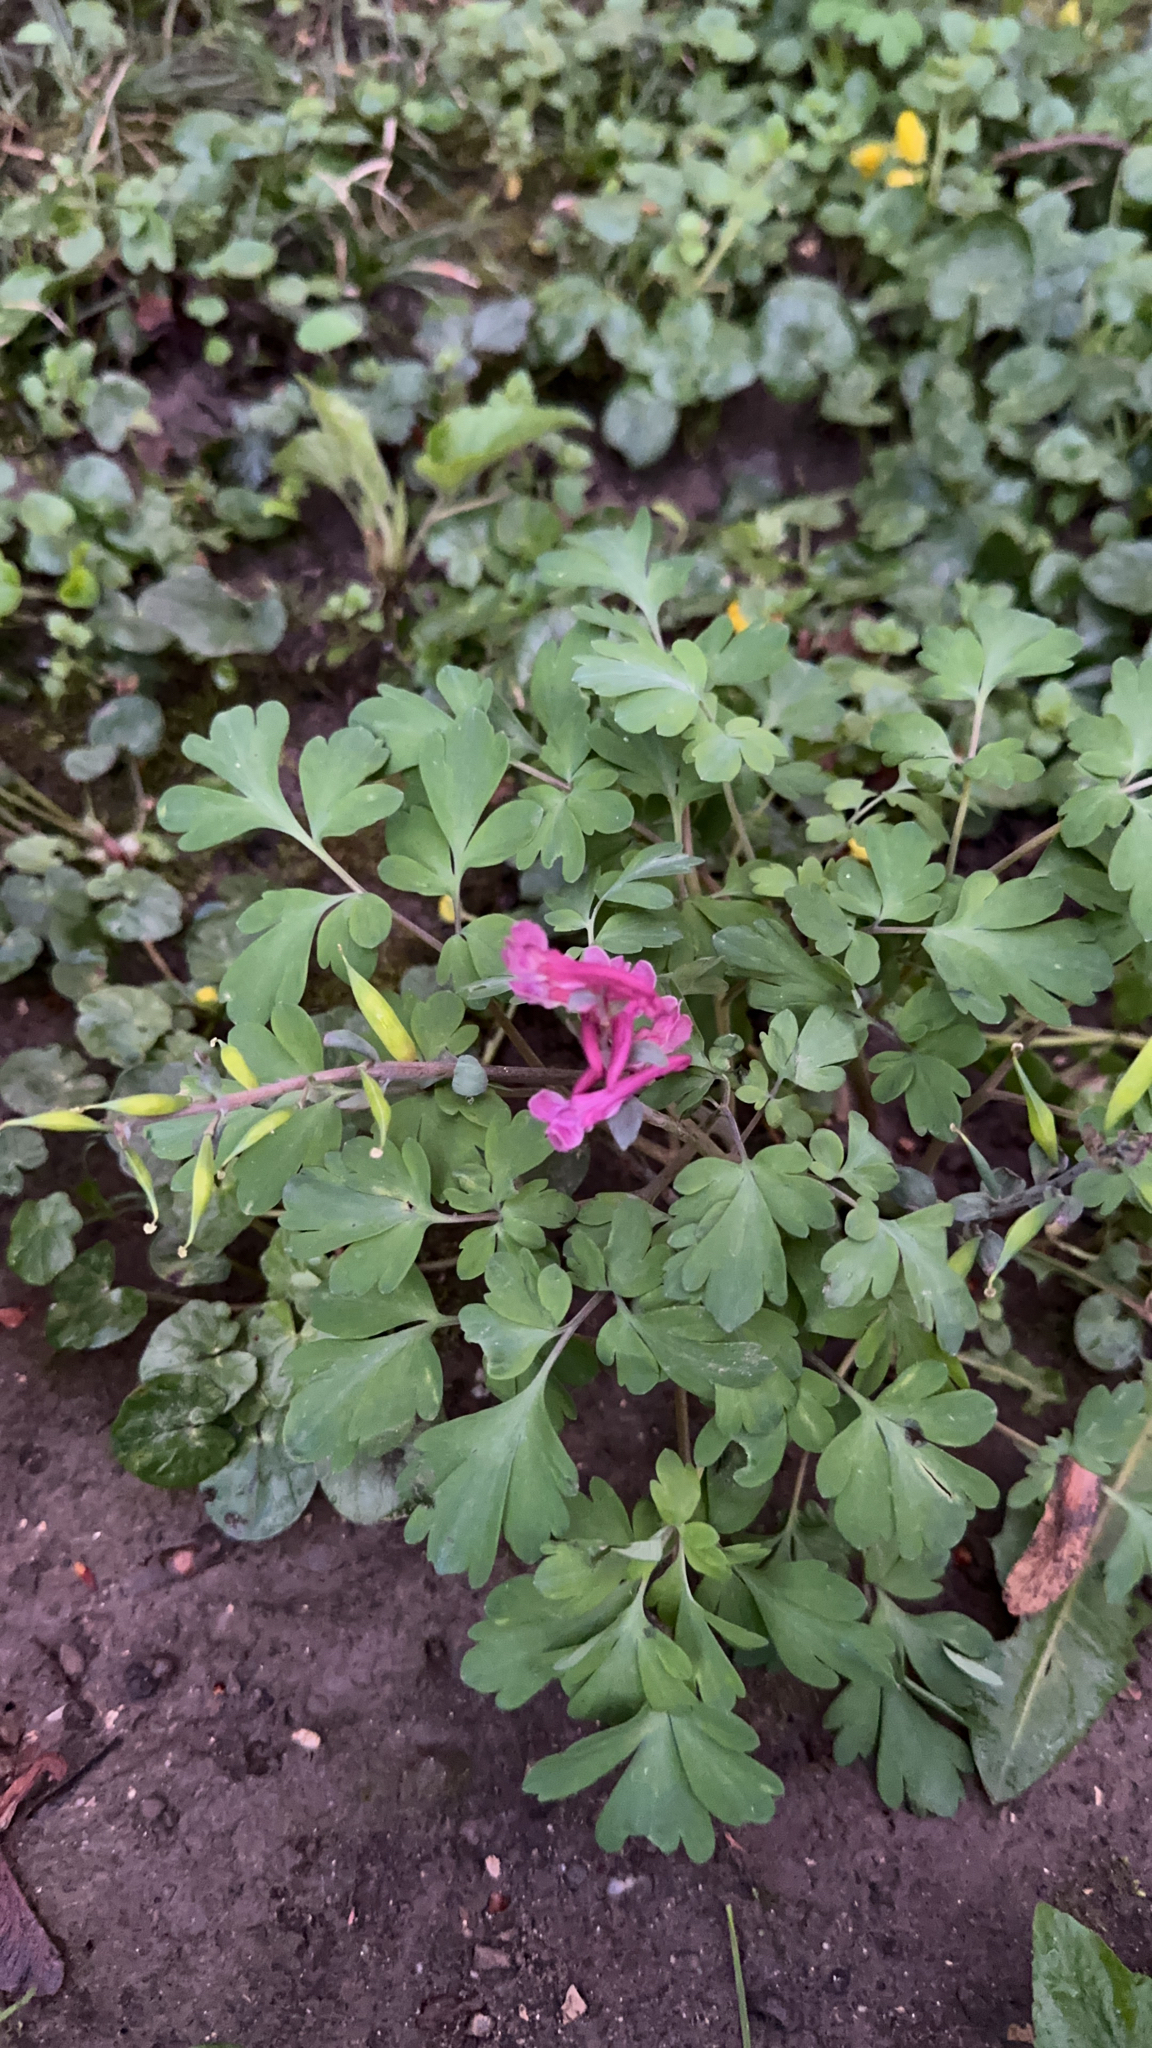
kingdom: Plantae
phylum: Tracheophyta
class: Magnoliopsida
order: Ranunculales
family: Papaveraceae
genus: Corydalis
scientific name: Corydalis cava
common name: Hollowroot
